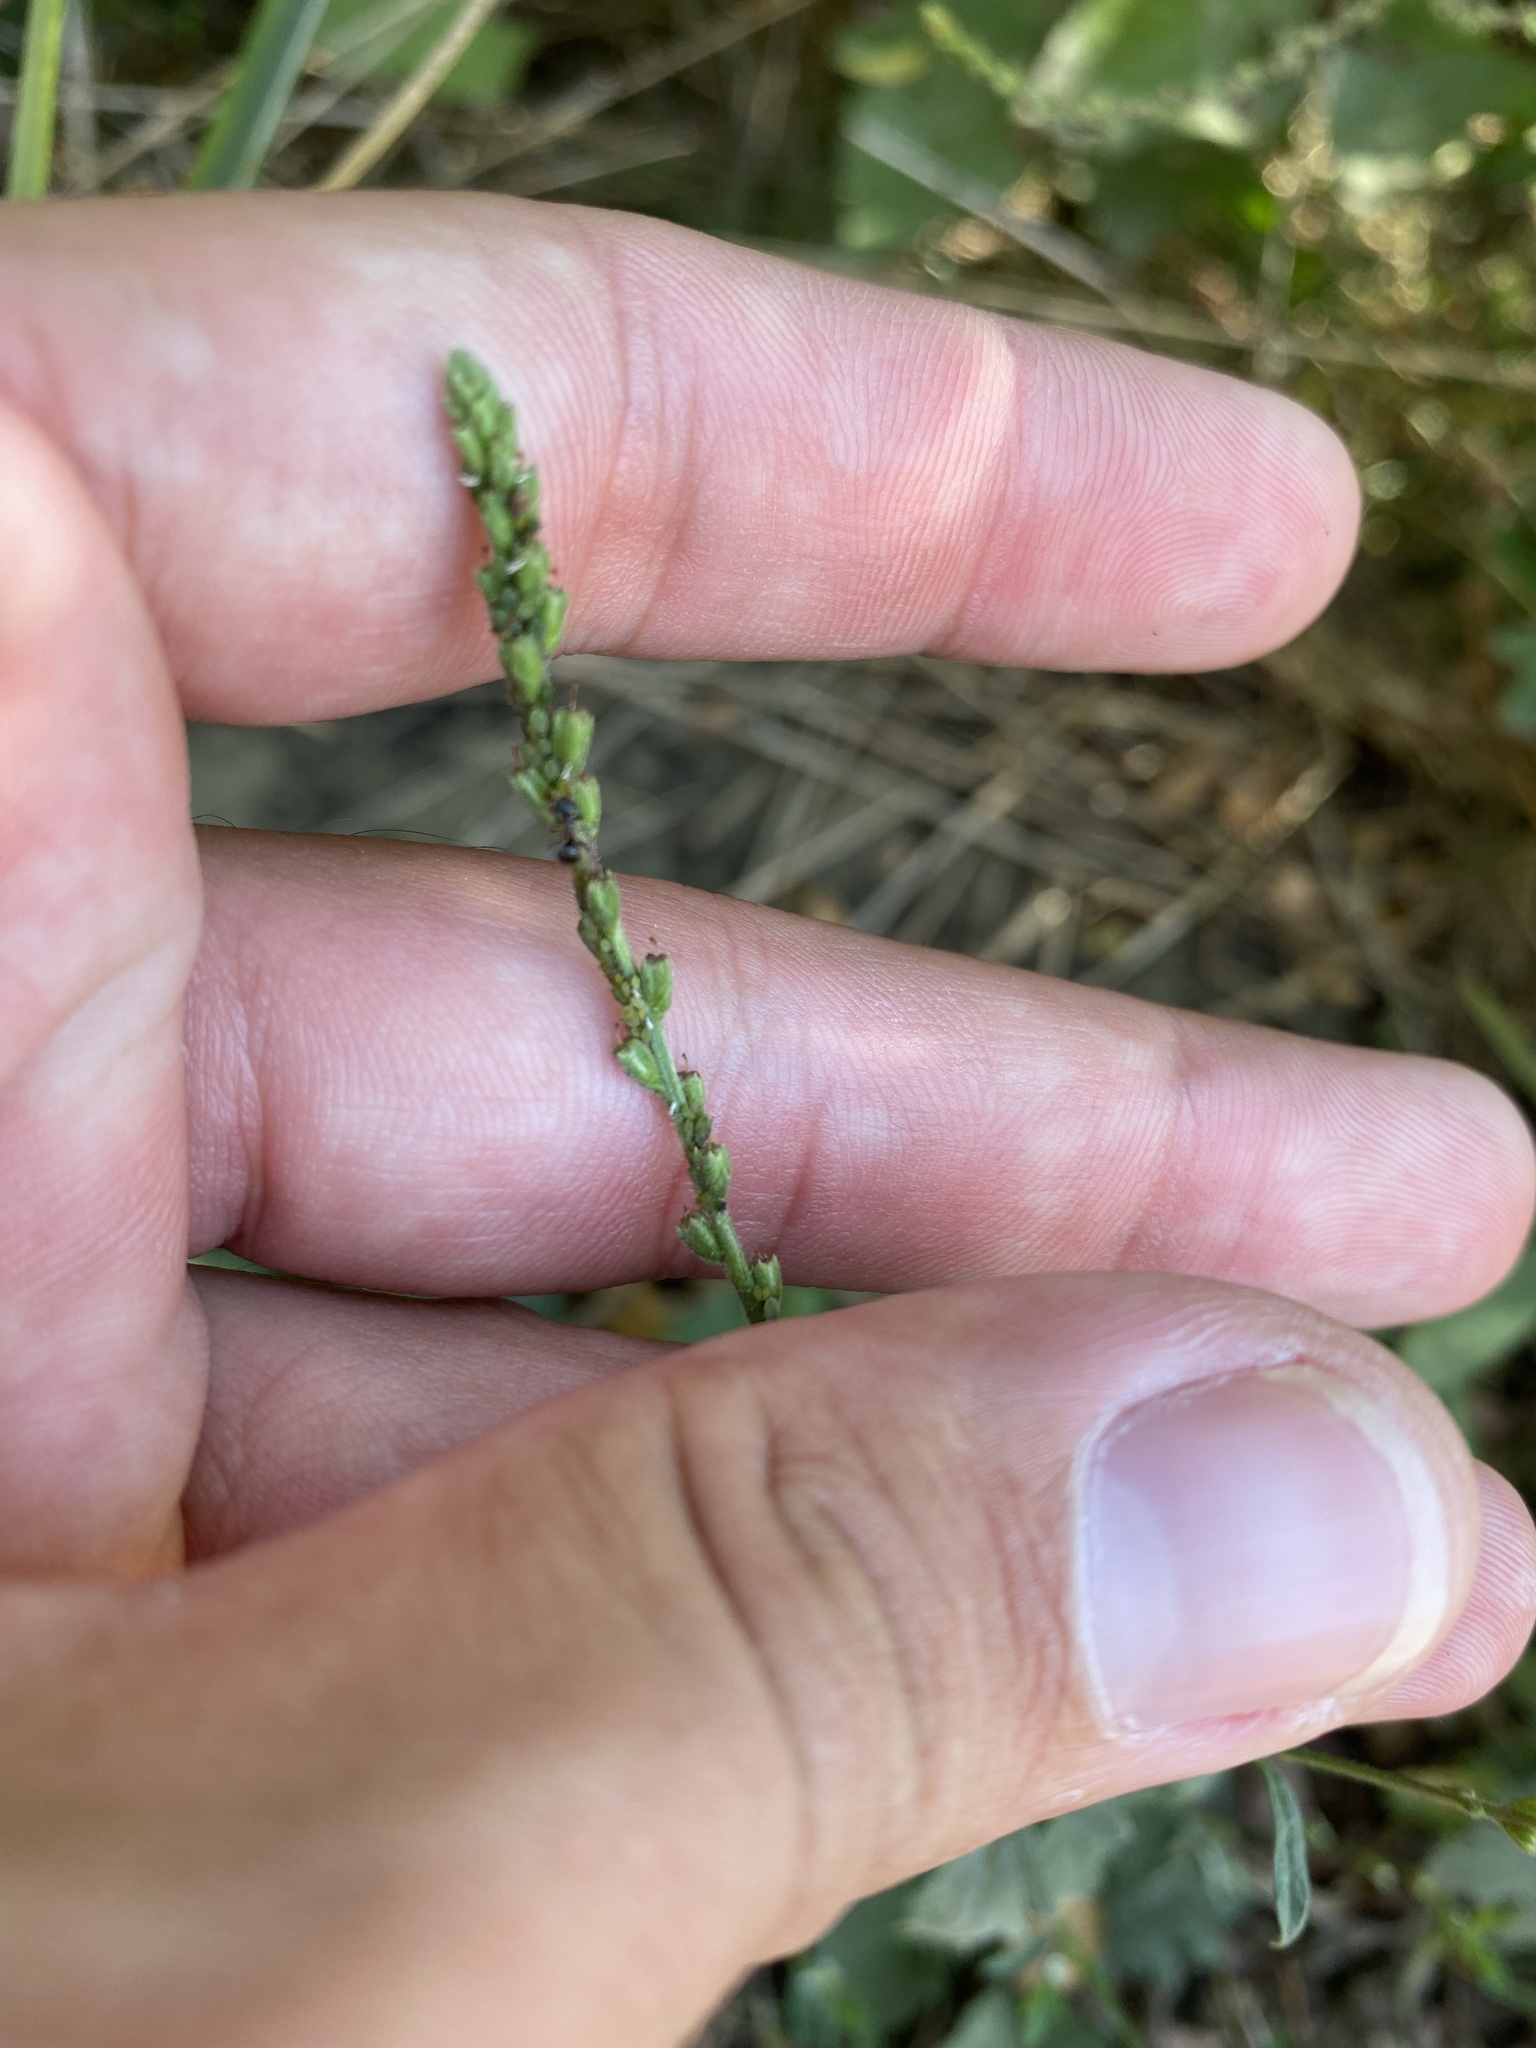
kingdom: Plantae
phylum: Tracheophyta
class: Magnoliopsida
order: Lamiales
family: Verbenaceae
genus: Verbena
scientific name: Verbena officinalis
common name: Vervain
